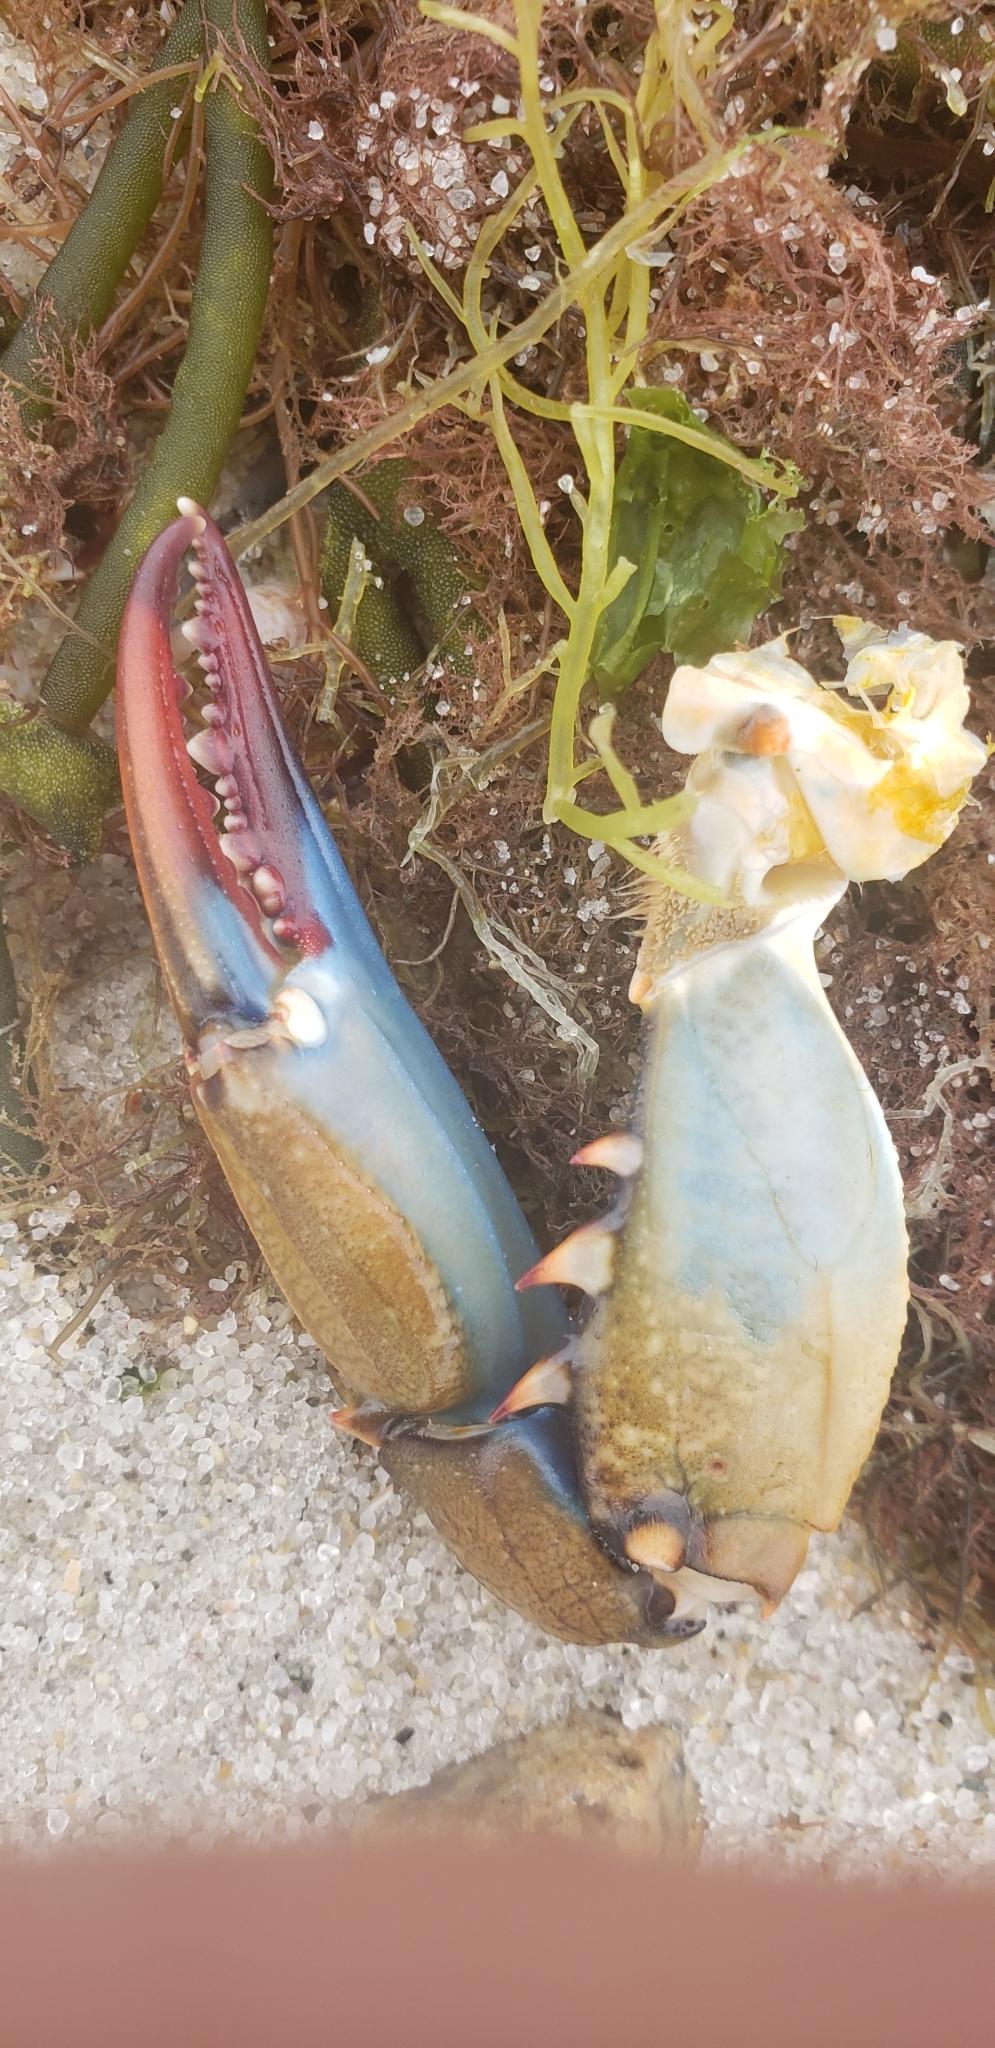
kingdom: Animalia
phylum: Arthropoda
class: Malacostraca
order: Decapoda
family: Portunidae
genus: Callinectes
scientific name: Callinectes sapidus
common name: Blue crab
